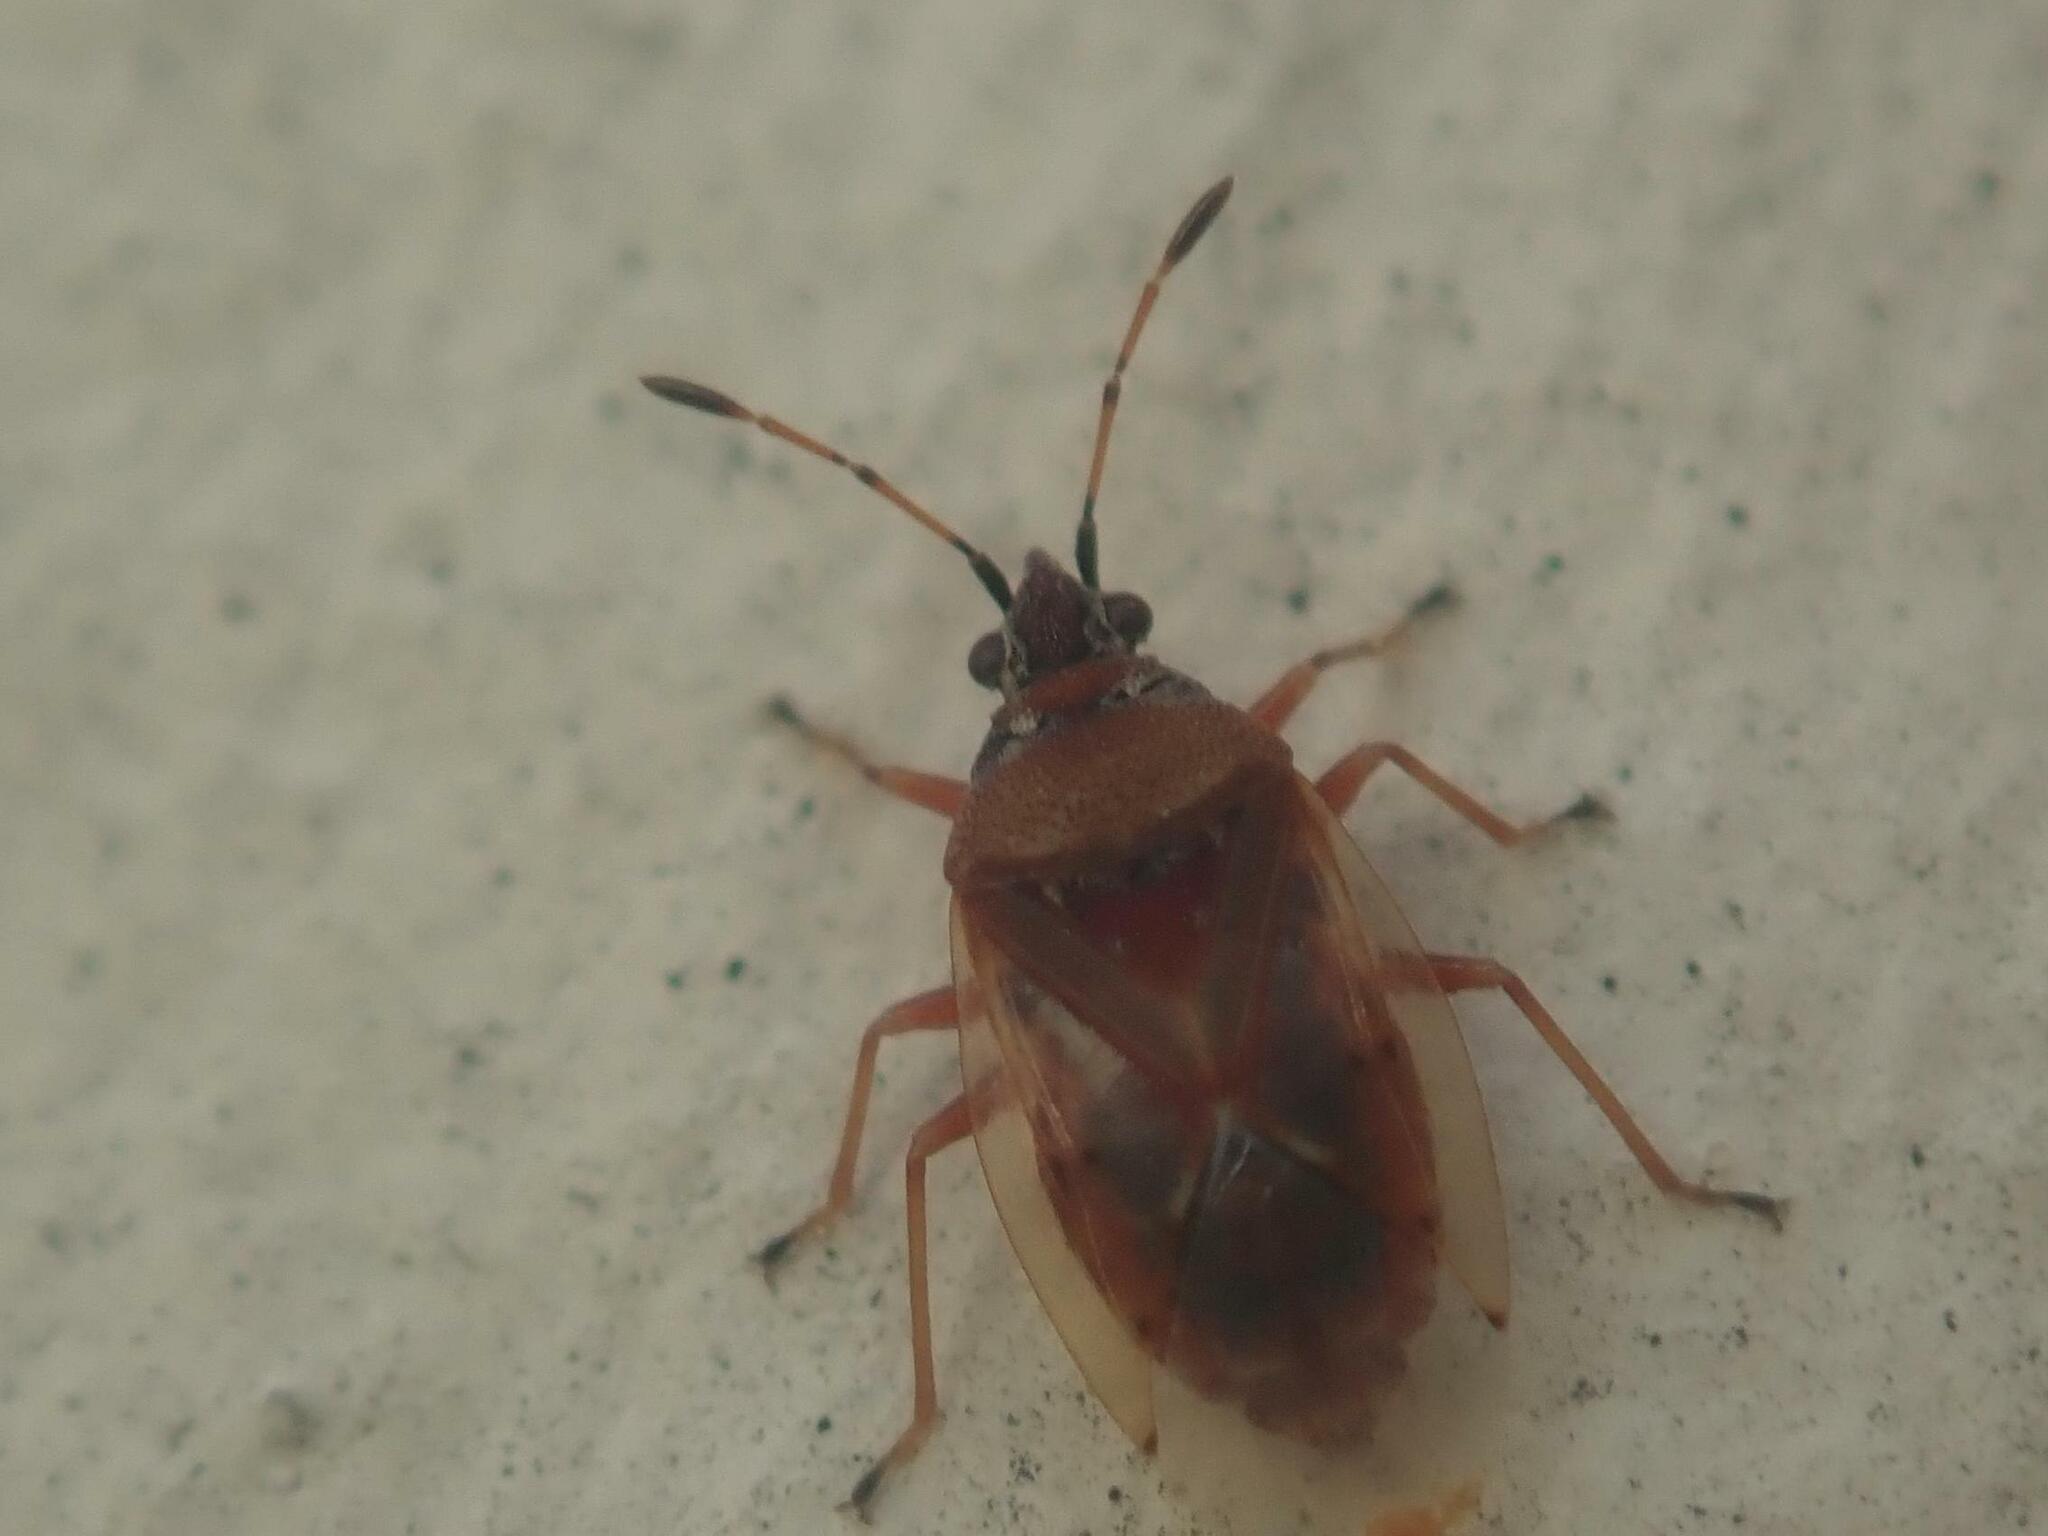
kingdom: Animalia
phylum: Arthropoda
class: Insecta
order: Hemiptera
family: Lygaeidae
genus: Kleidocerys
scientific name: Kleidocerys resedae
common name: Birch catkin bug
